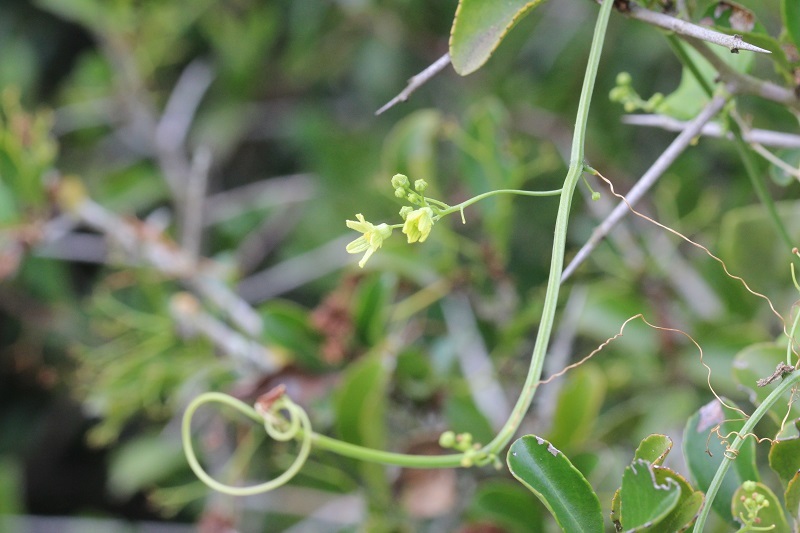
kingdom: Plantae
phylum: Tracheophyta
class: Magnoliopsida
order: Cucurbitales
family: Cucurbitaceae
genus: Kedrostis
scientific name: Kedrostis nana
